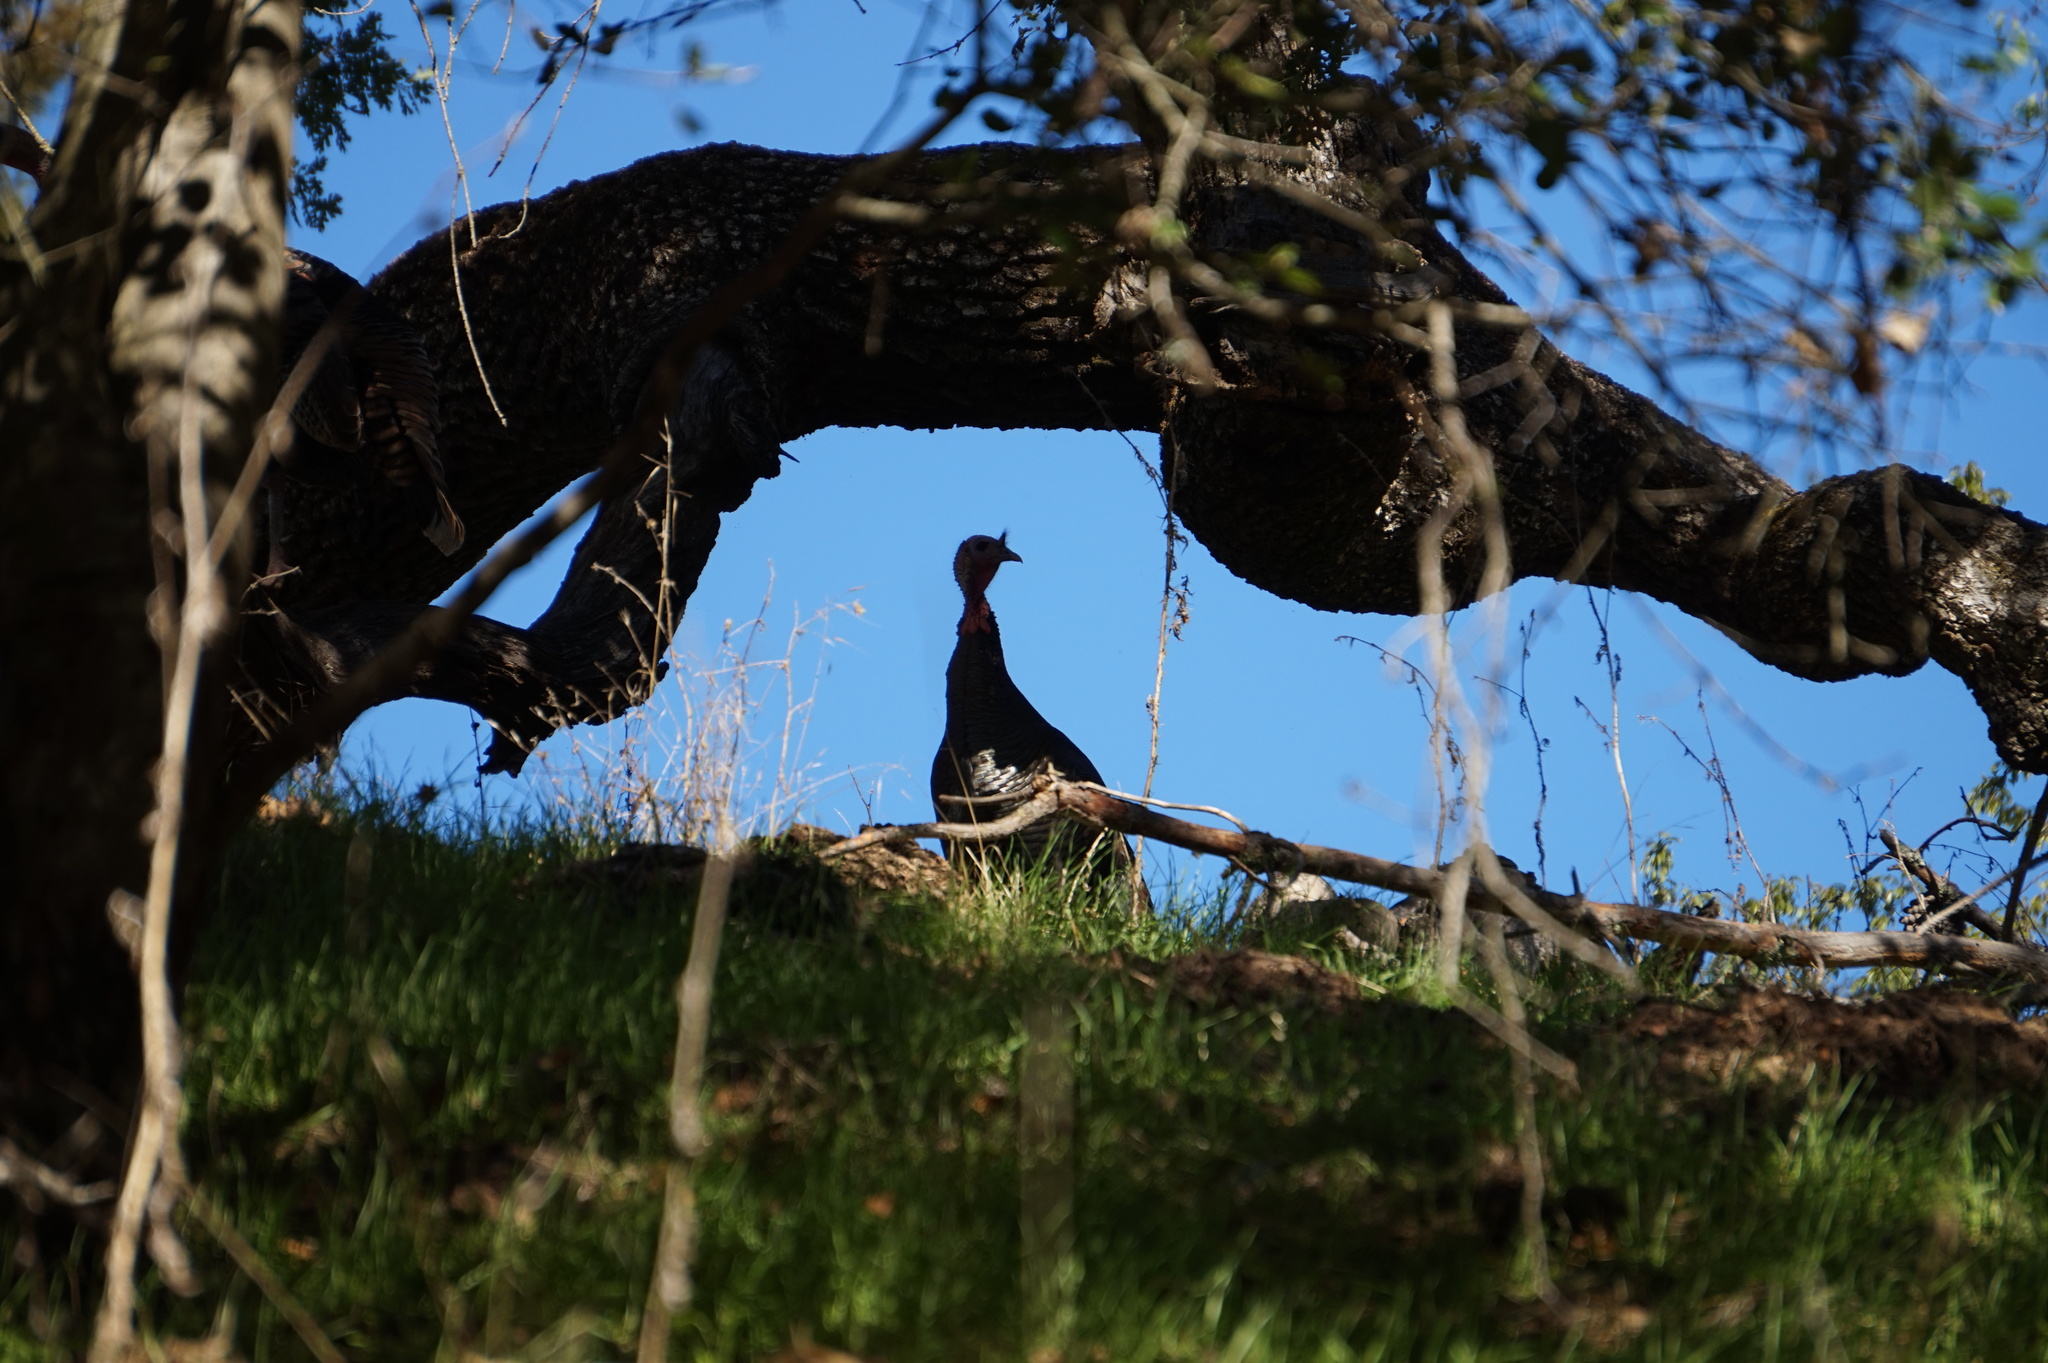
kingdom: Animalia
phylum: Chordata
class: Aves
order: Galliformes
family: Phasianidae
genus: Meleagris
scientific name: Meleagris gallopavo
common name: Wild turkey
